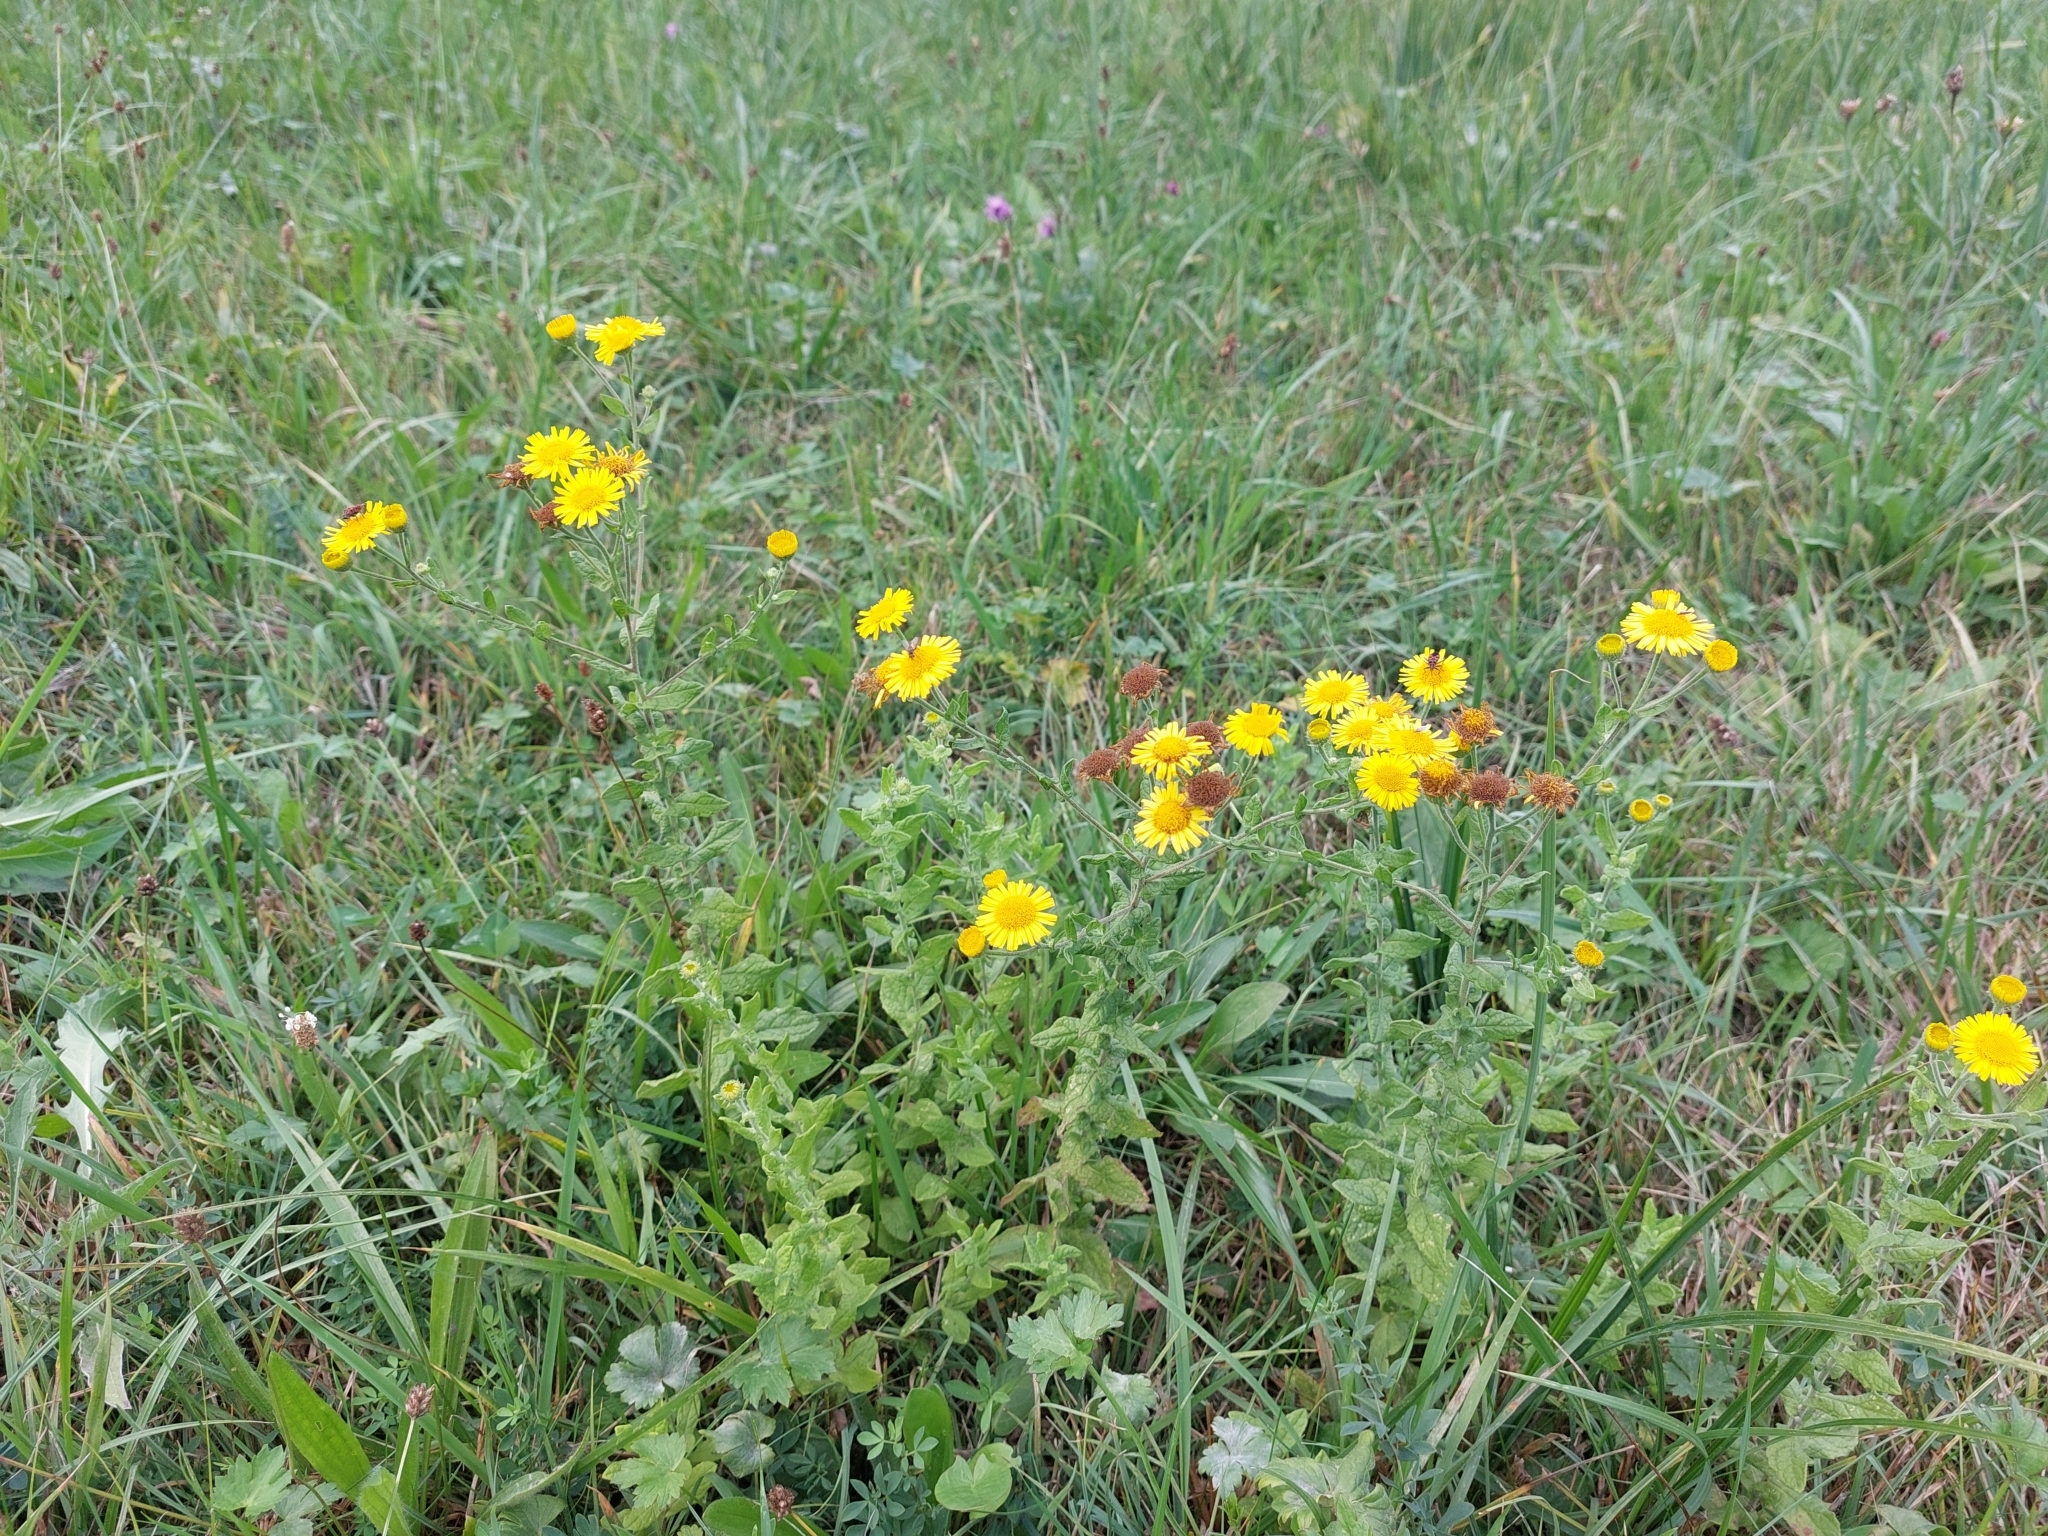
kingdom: Plantae
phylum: Tracheophyta
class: Magnoliopsida
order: Asterales
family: Asteraceae
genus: Pulicaria
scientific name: Pulicaria dysenterica
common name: Common fleabane
